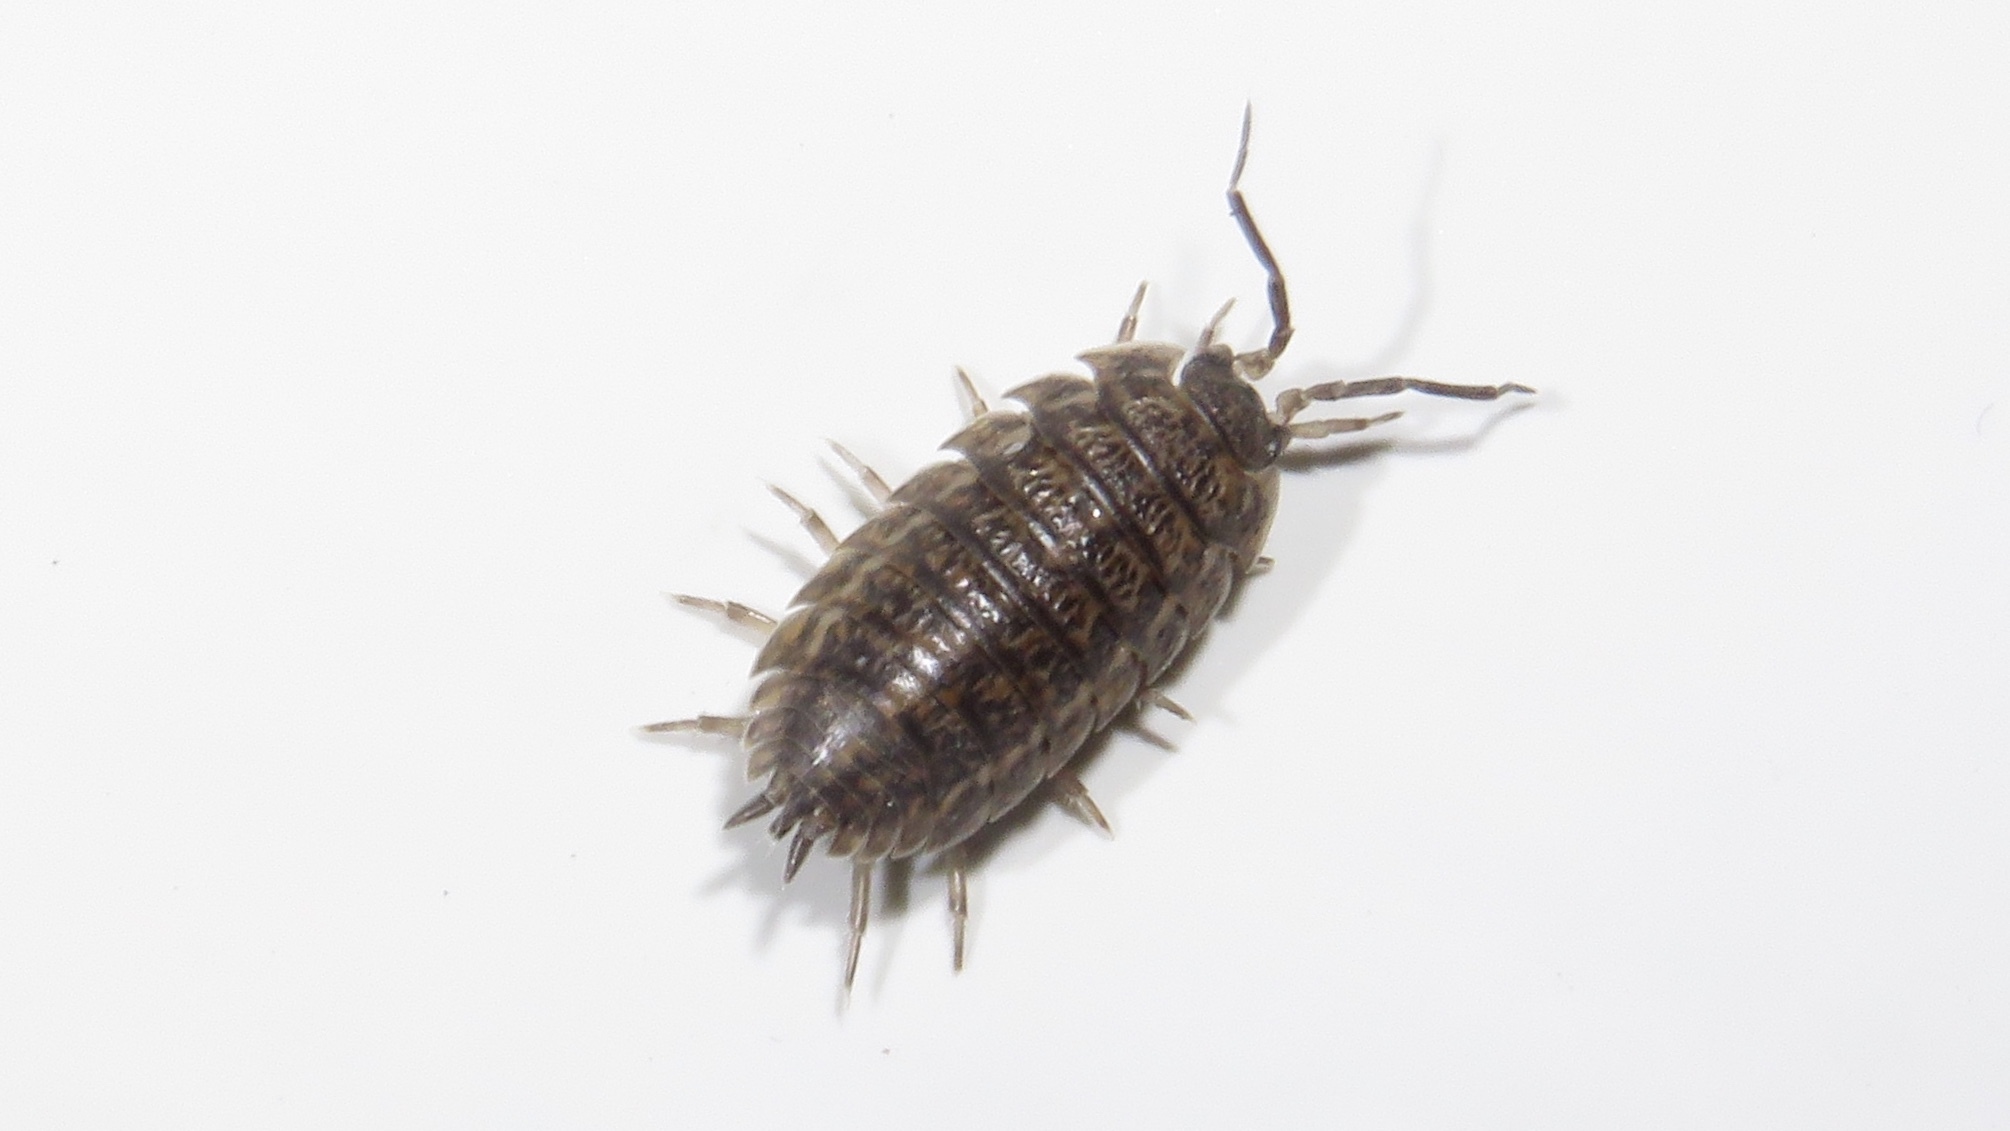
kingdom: Animalia
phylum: Arthropoda
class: Malacostraca
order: Isopoda
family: Trachelipodidae
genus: Trachelipus
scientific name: Trachelipus rathkii
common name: Isopod
